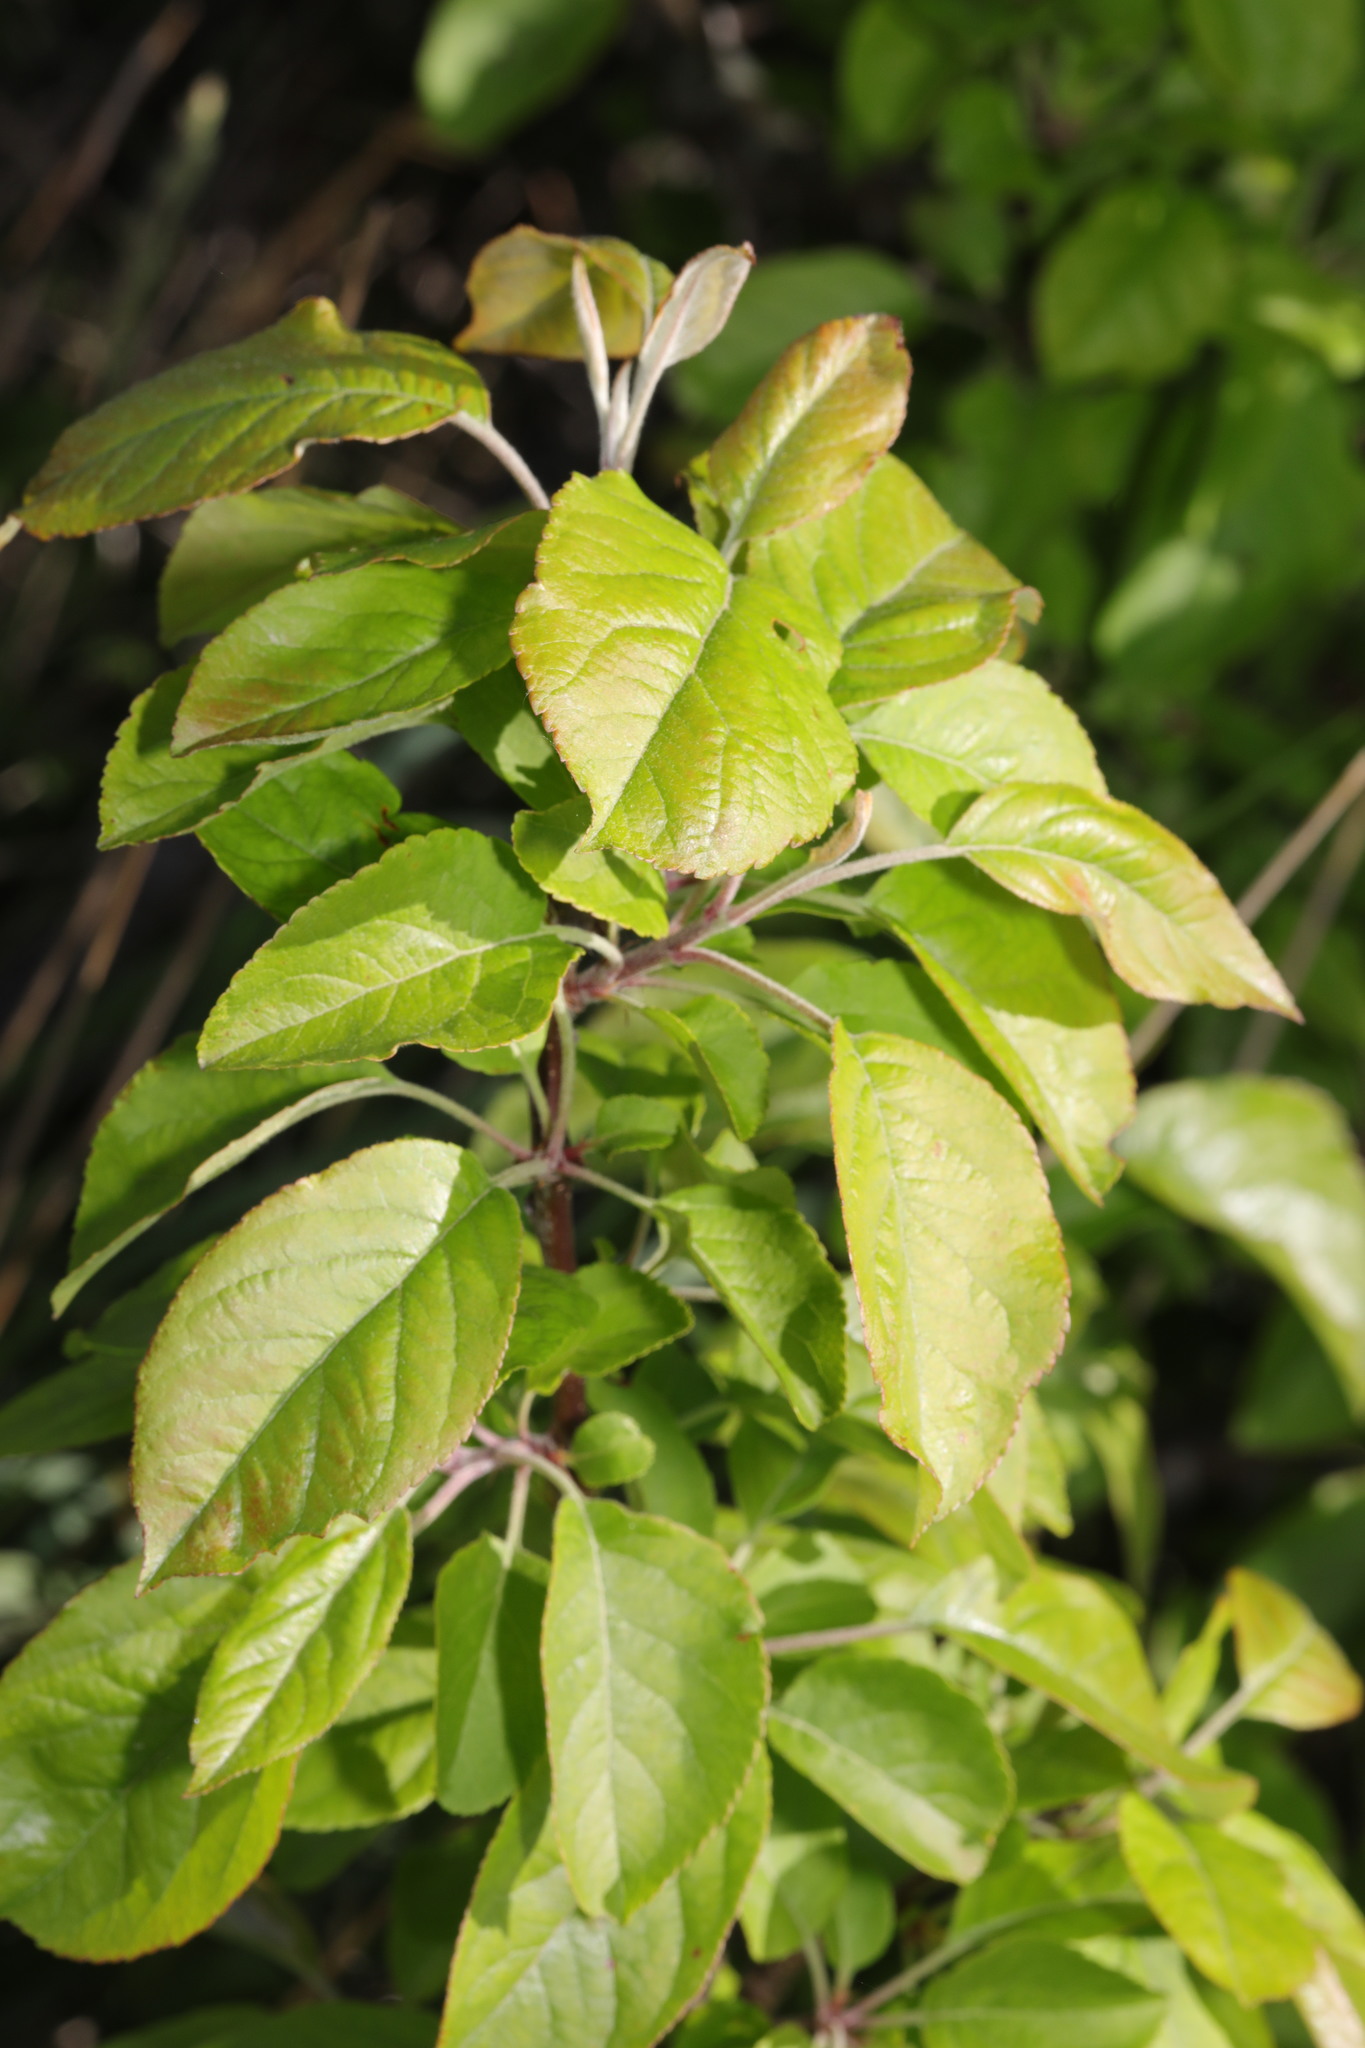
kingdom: Plantae
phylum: Tracheophyta
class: Magnoliopsida
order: Rosales
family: Rosaceae
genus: Malus
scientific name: Malus domestica
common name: Apple
